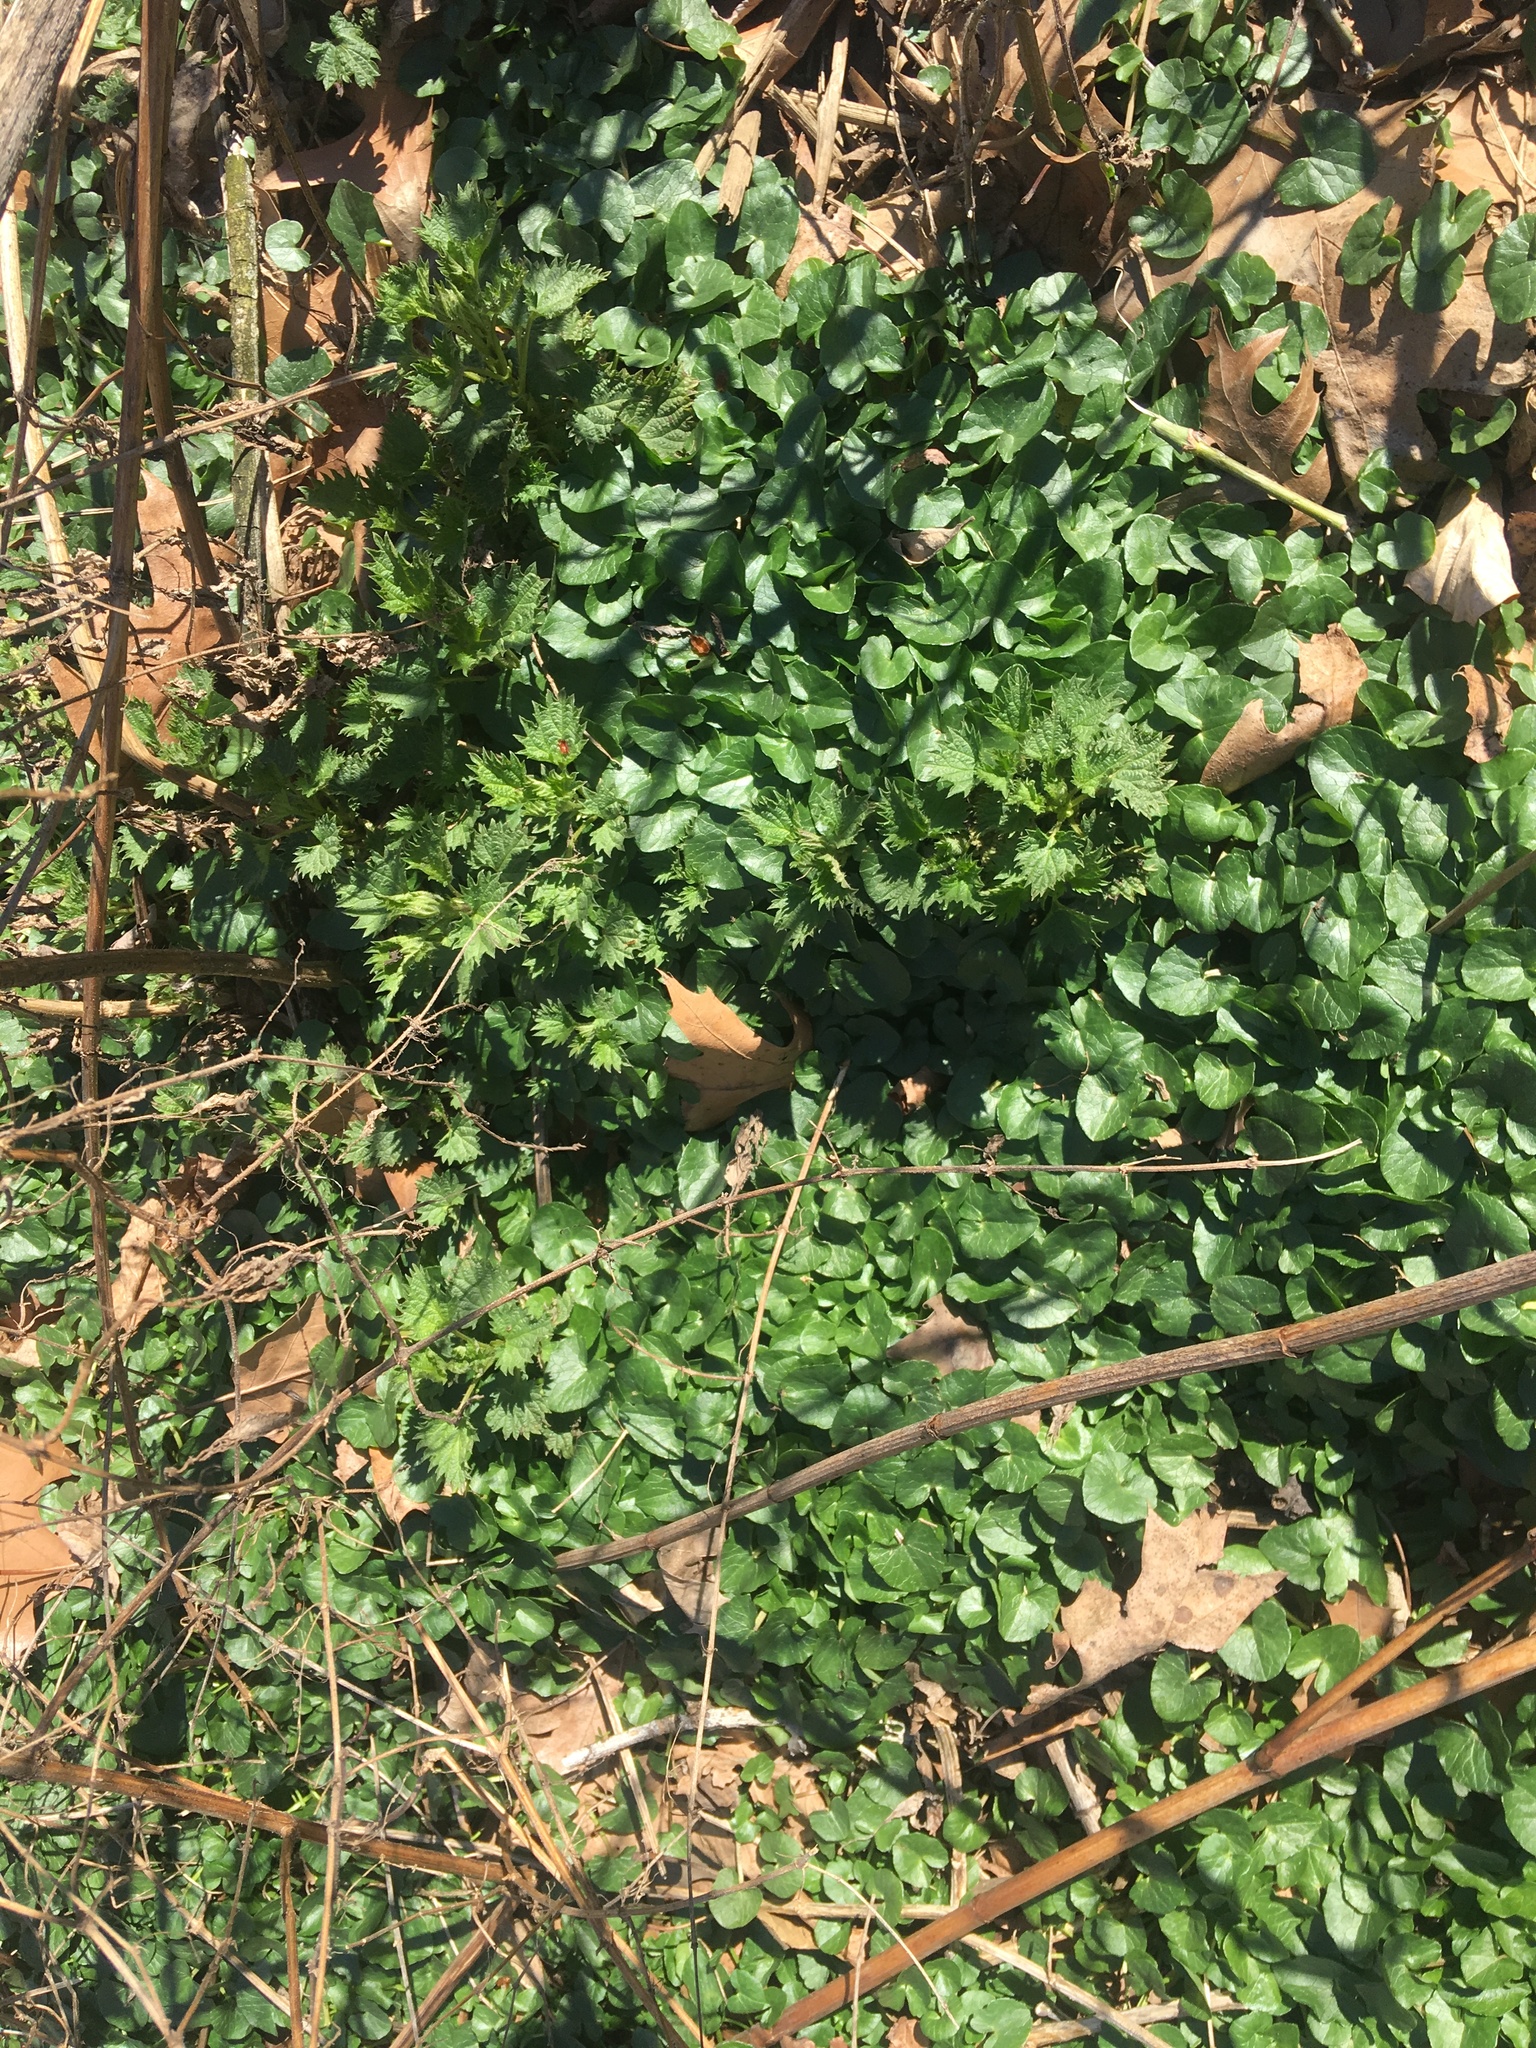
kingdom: Plantae
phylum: Tracheophyta
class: Magnoliopsida
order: Ranunculales
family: Ranunculaceae
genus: Ficaria
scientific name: Ficaria verna
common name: Lesser celandine
